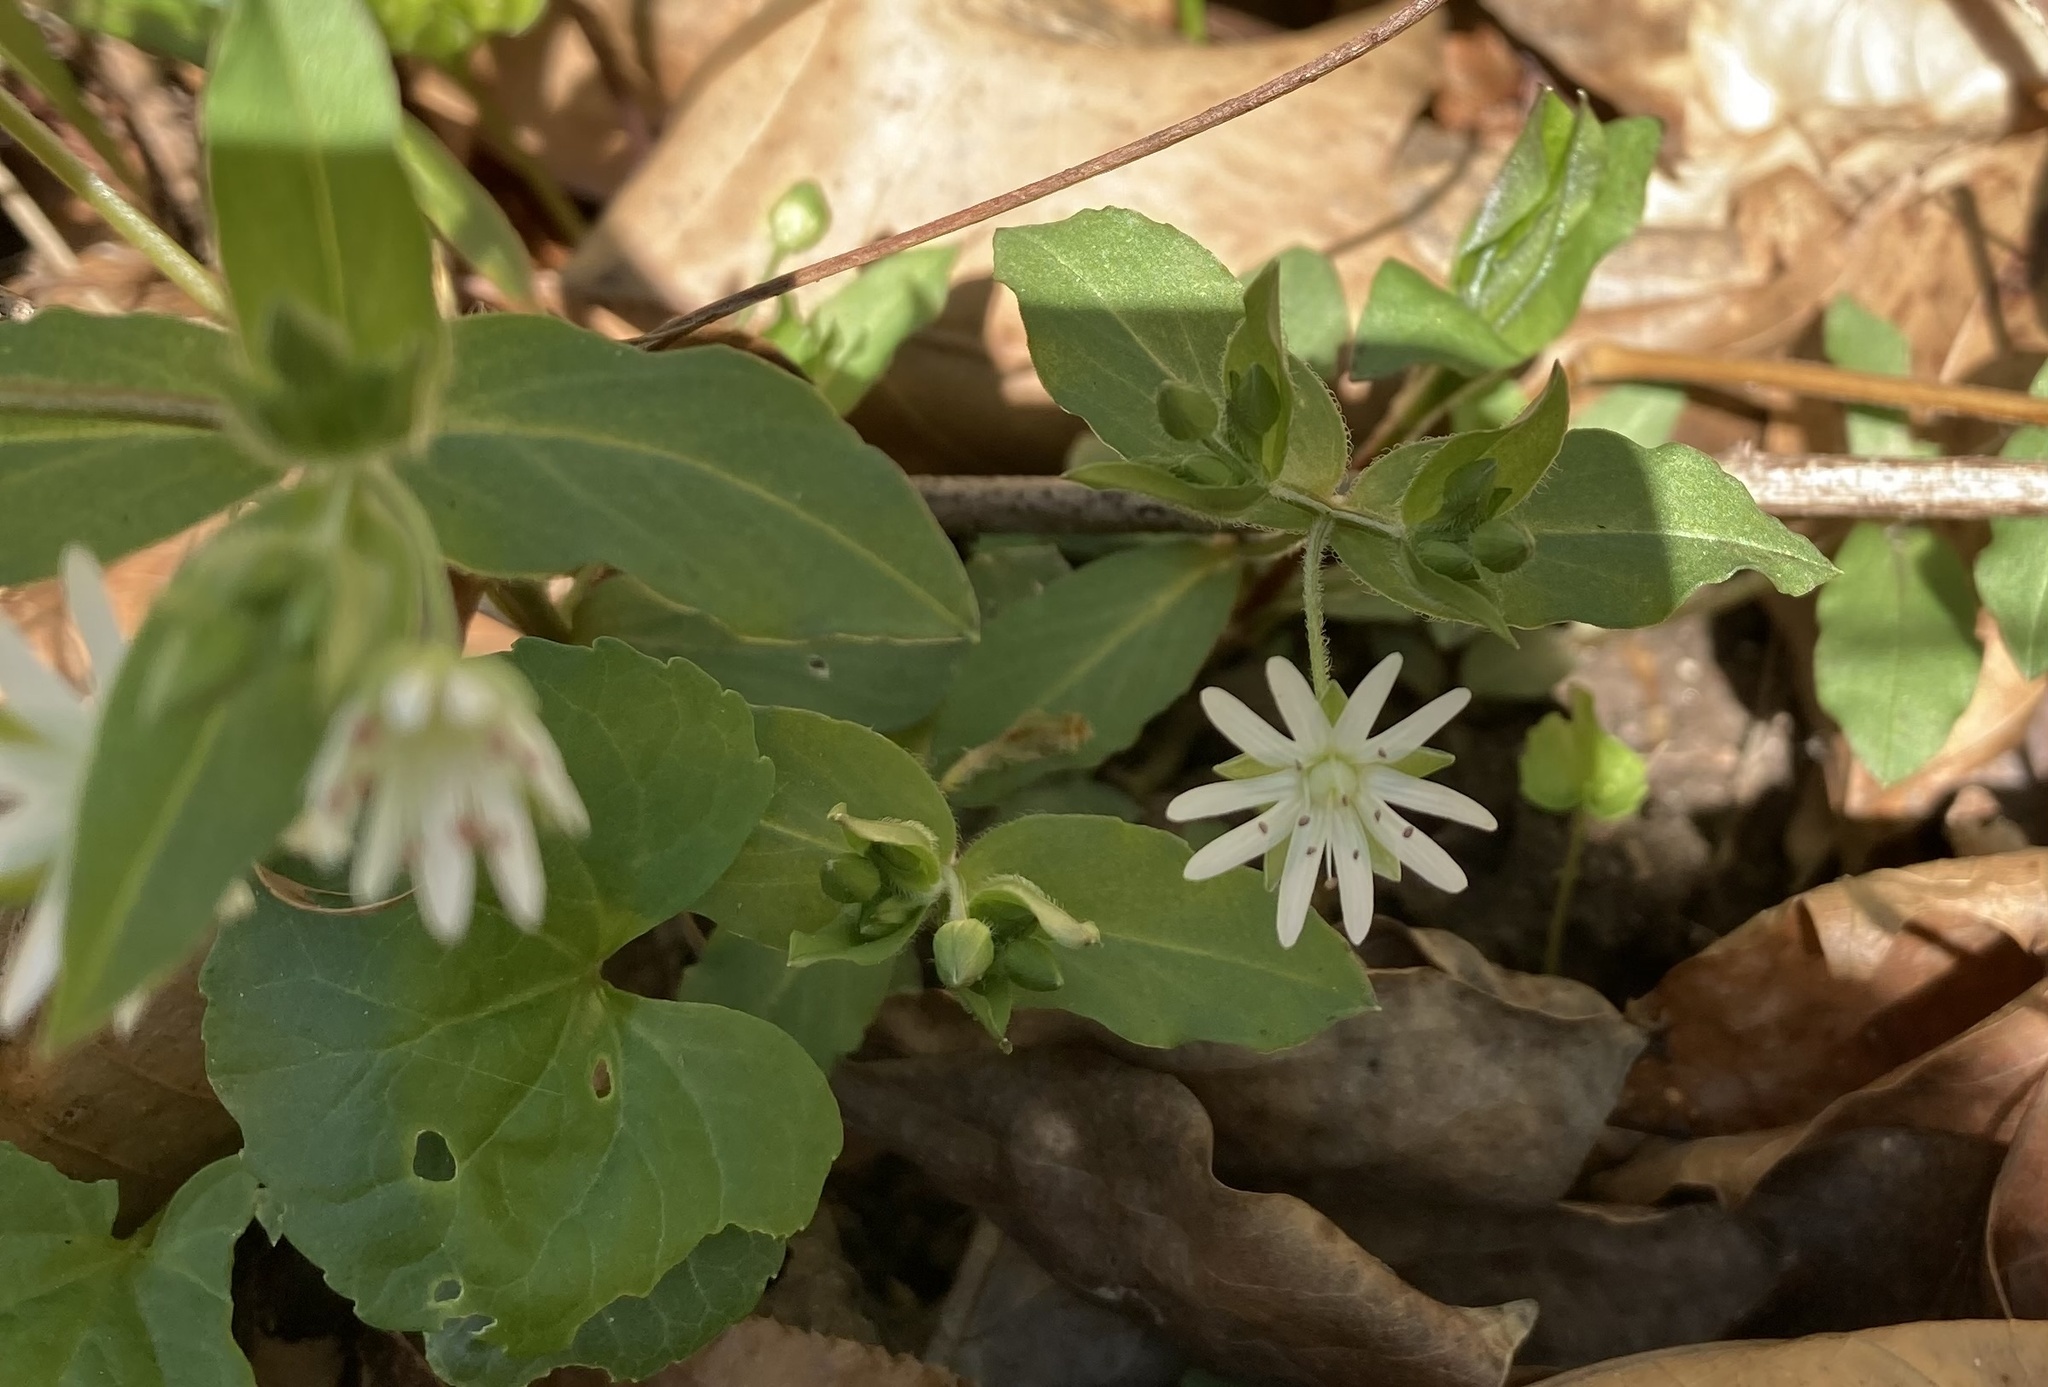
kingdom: Plantae
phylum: Tracheophyta
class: Magnoliopsida
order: Caryophyllales
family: Caryophyllaceae
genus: Stellaria
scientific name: Stellaria pubera
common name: Star chickweed
